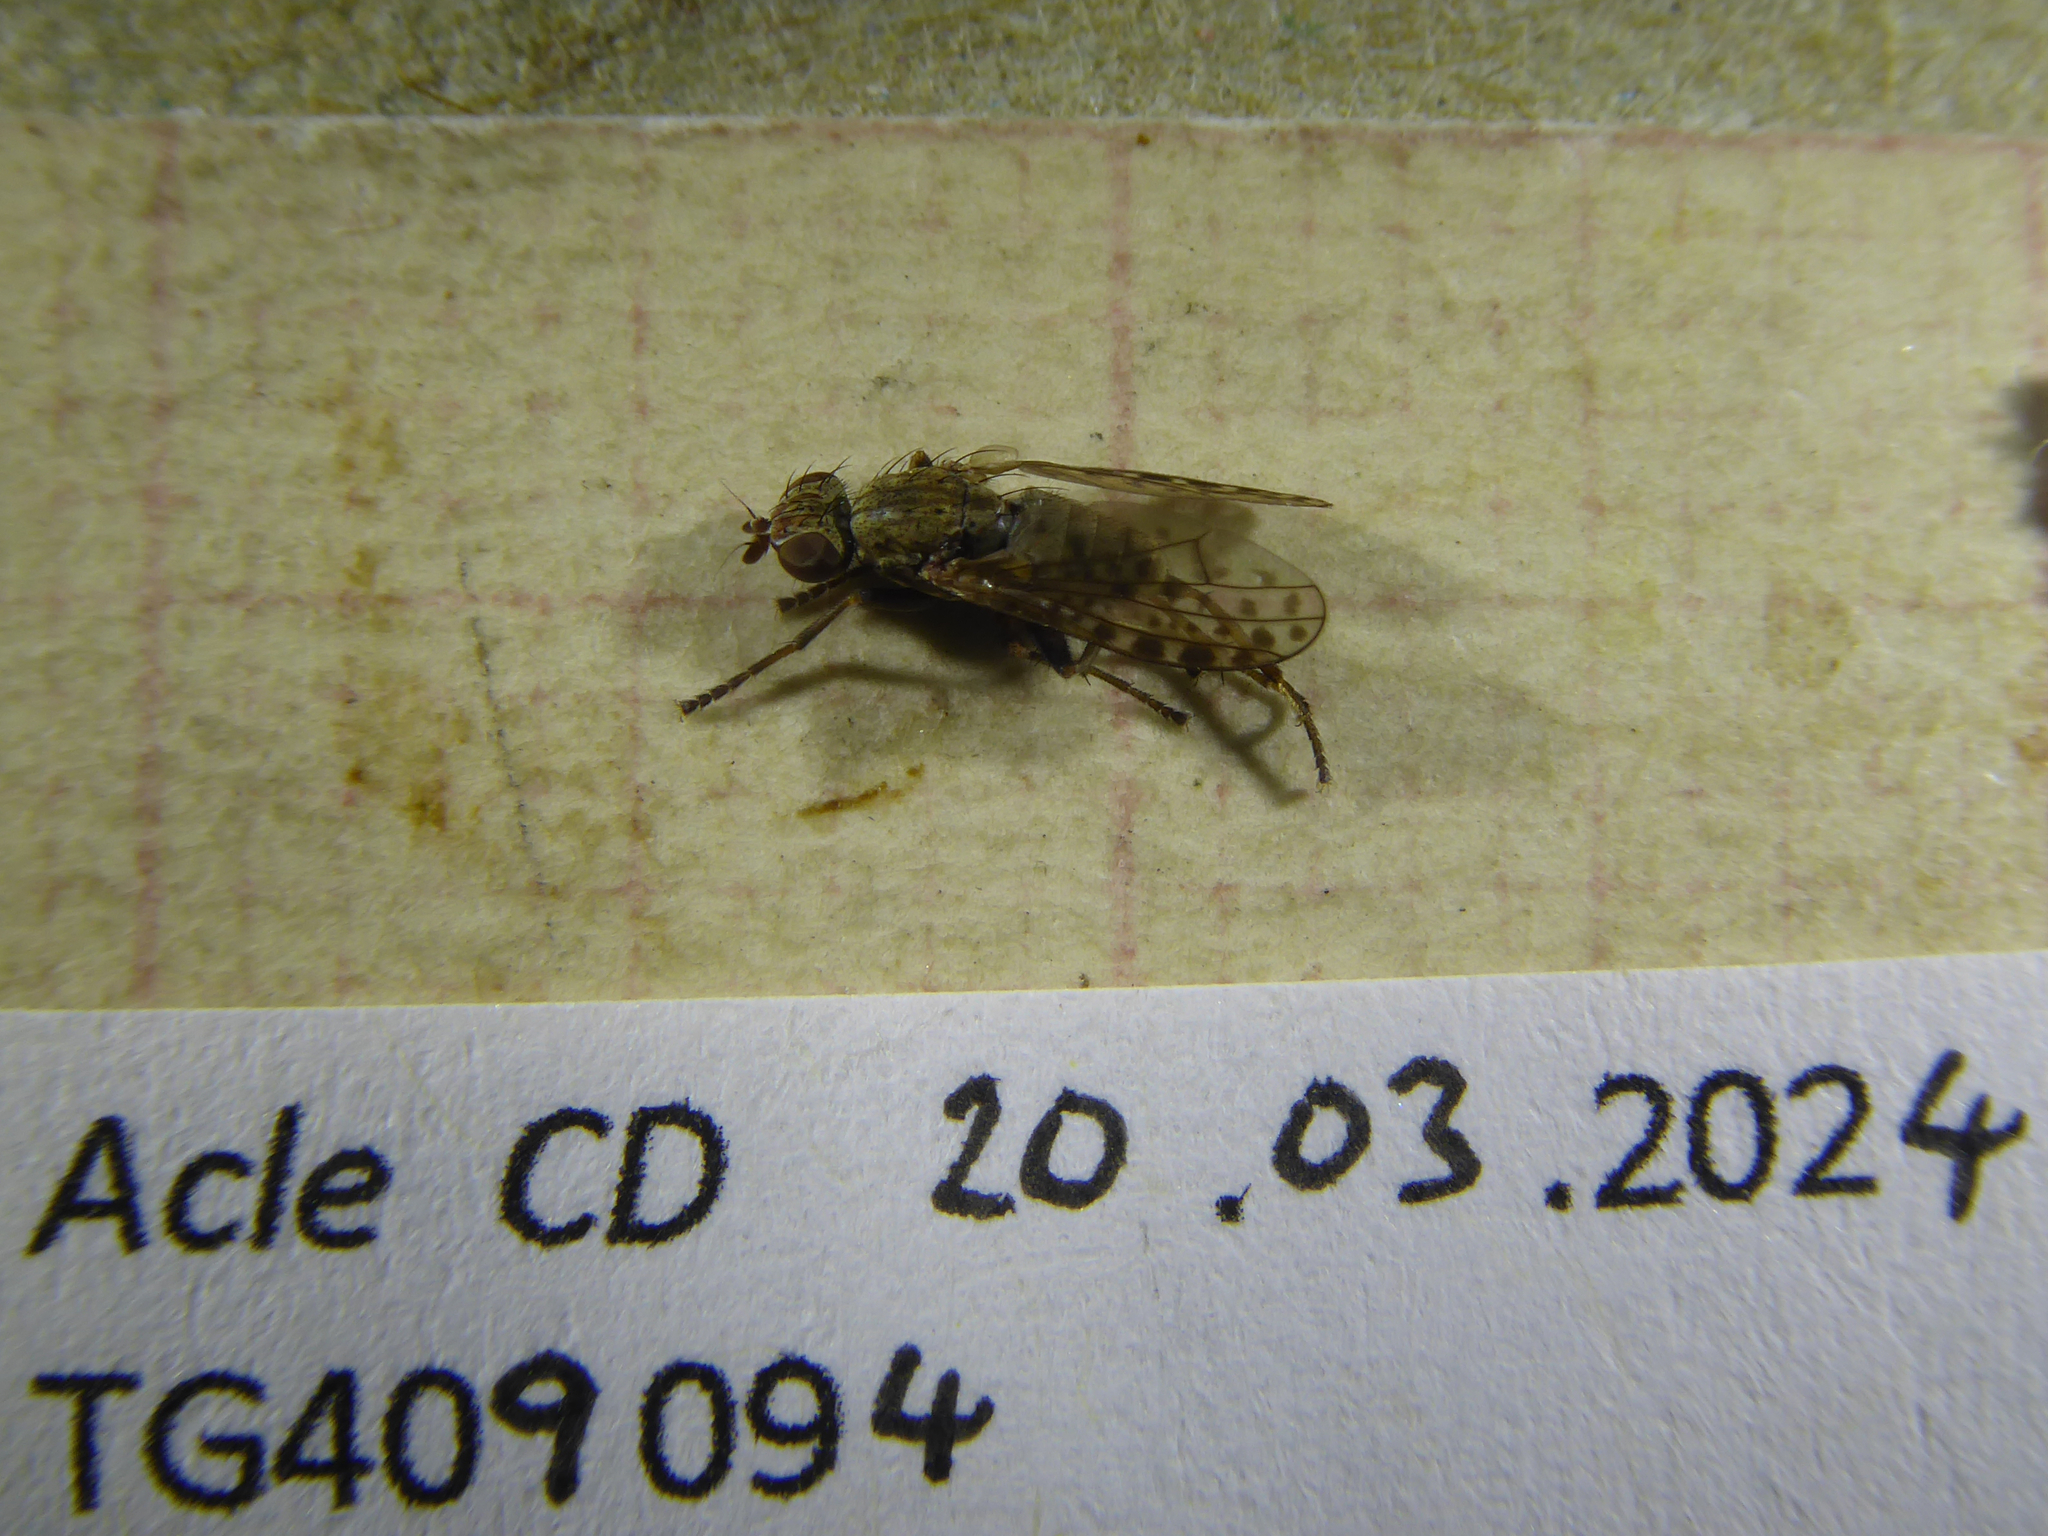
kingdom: Animalia
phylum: Arthropoda
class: Insecta
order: Diptera
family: Sciomyzidae
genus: Pherbellia
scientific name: Pherbellia schoenherri
